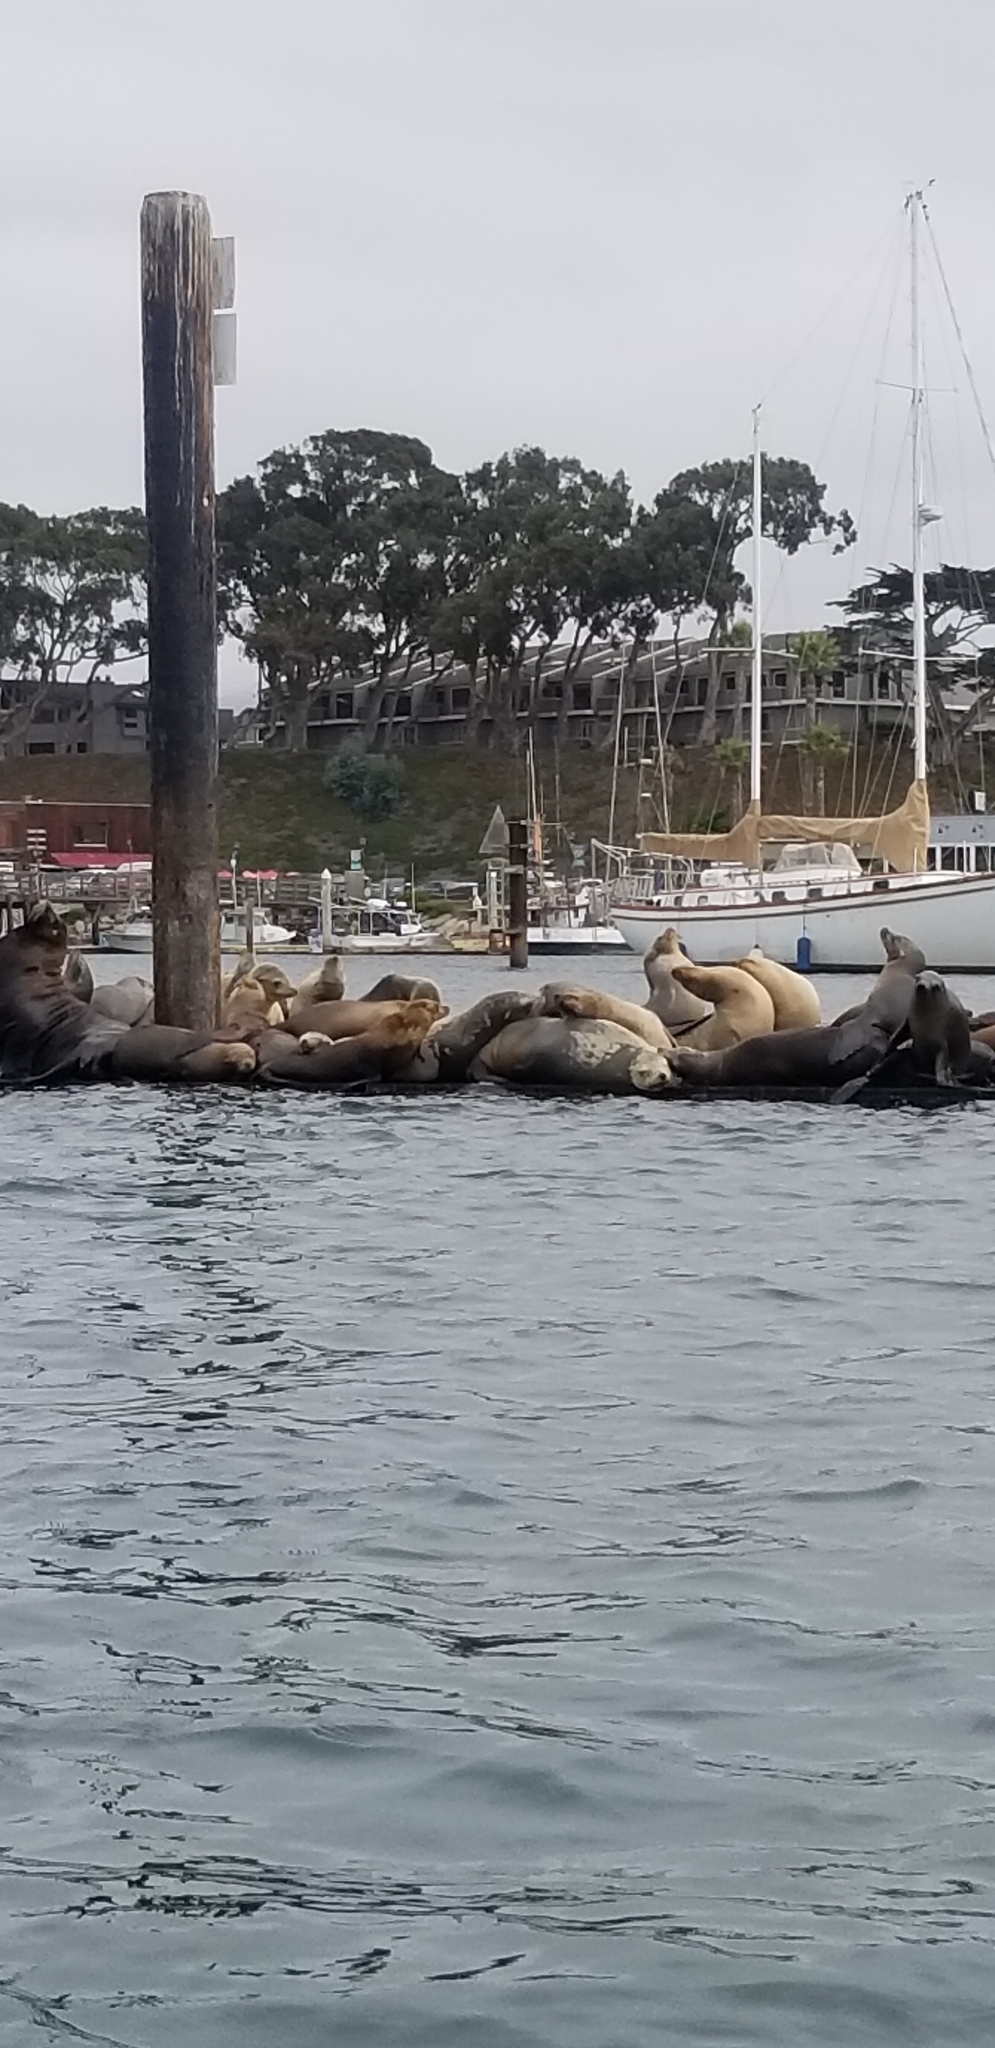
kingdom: Animalia
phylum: Chordata
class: Mammalia
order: Carnivora
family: Otariidae
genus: Zalophus
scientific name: Zalophus californianus
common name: California sea lion
